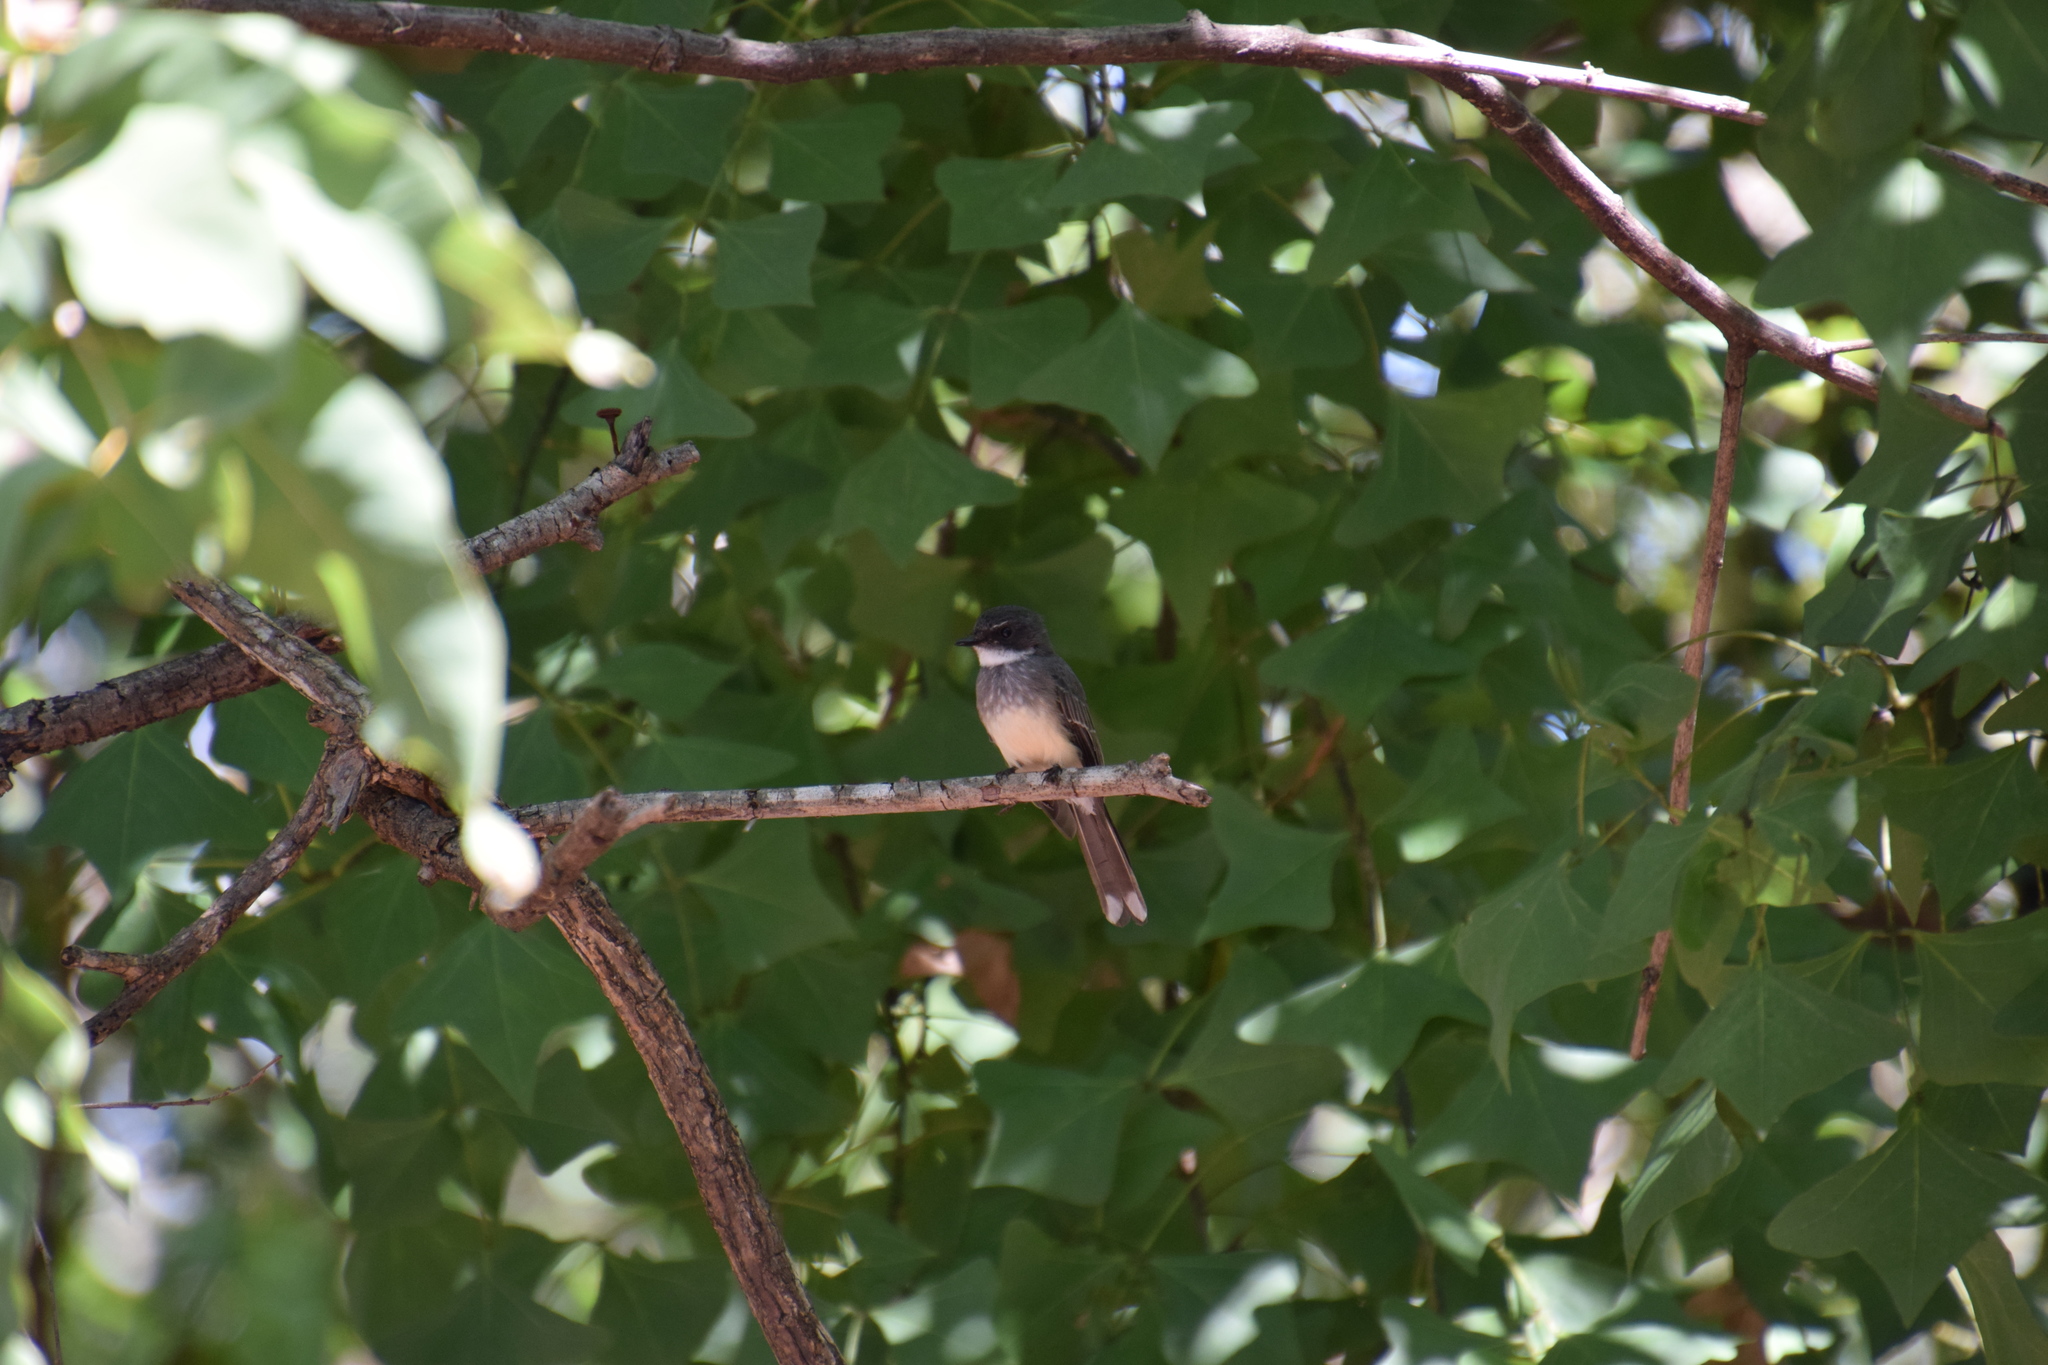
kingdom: Animalia
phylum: Chordata
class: Aves
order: Passeriformes
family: Rhipiduridae
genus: Rhipidura
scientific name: Rhipidura rufiventris
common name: Northern fantail
